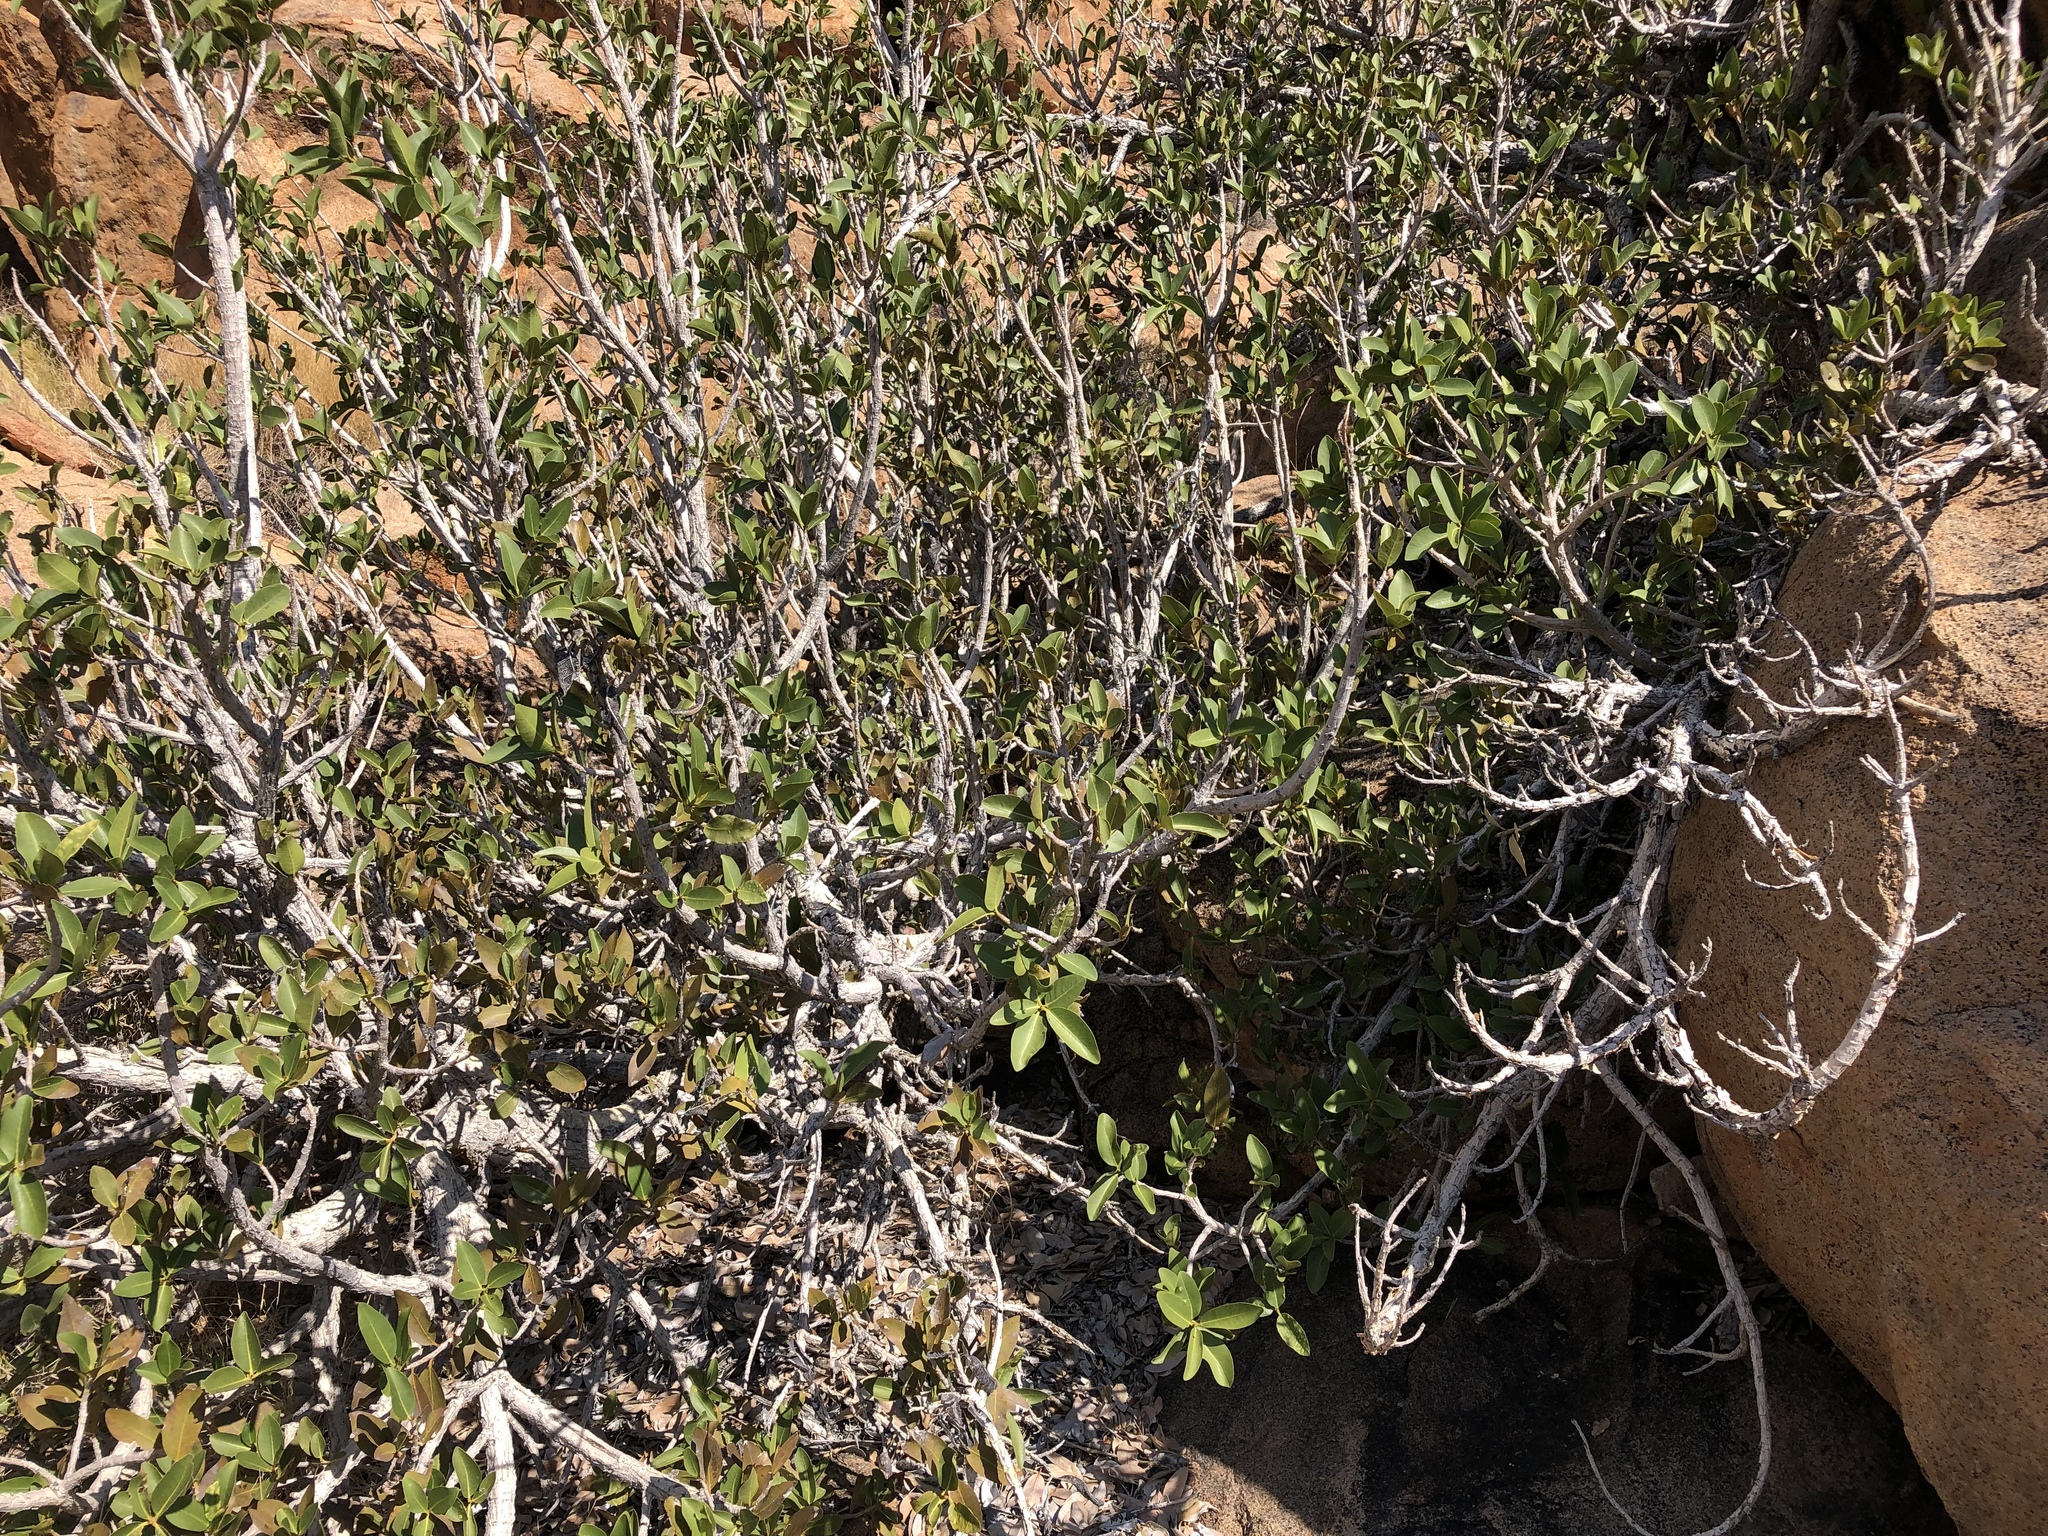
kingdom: Plantae
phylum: Tracheophyta
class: Magnoliopsida
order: Rosales
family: Moraceae
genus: Ficus
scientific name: Ficus ilicina
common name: Laurel rock fig
